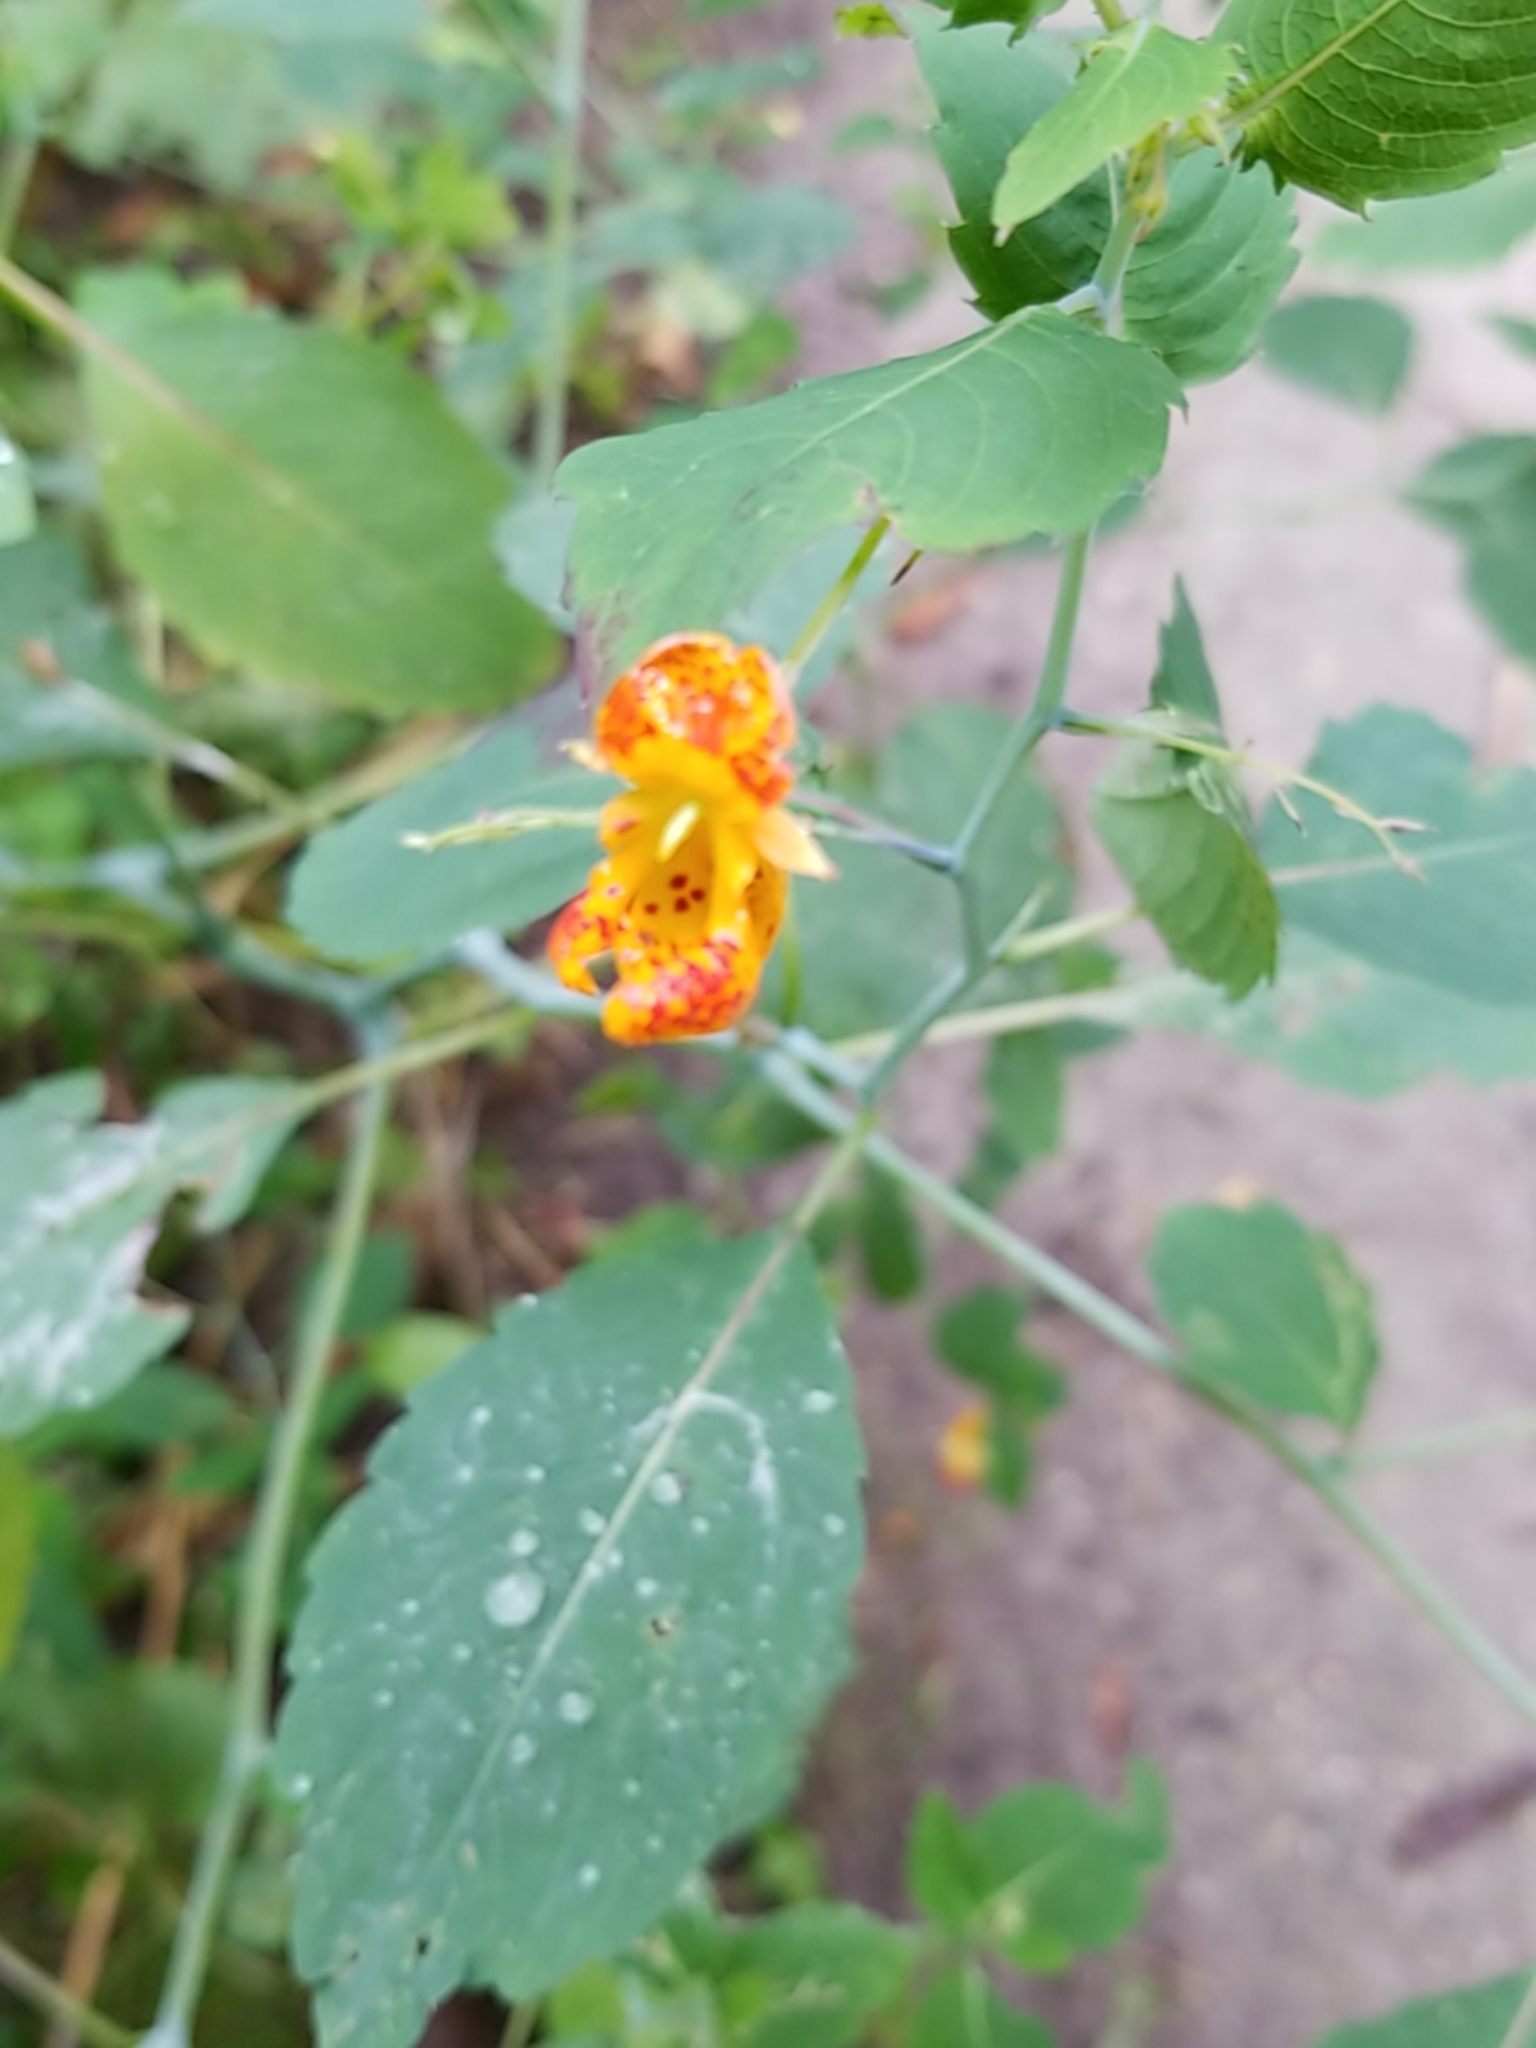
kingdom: Plantae
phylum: Tracheophyta
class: Magnoliopsida
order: Ericales
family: Balsaminaceae
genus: Impatiens
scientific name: Impatiens capensis
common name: Orange balsam
